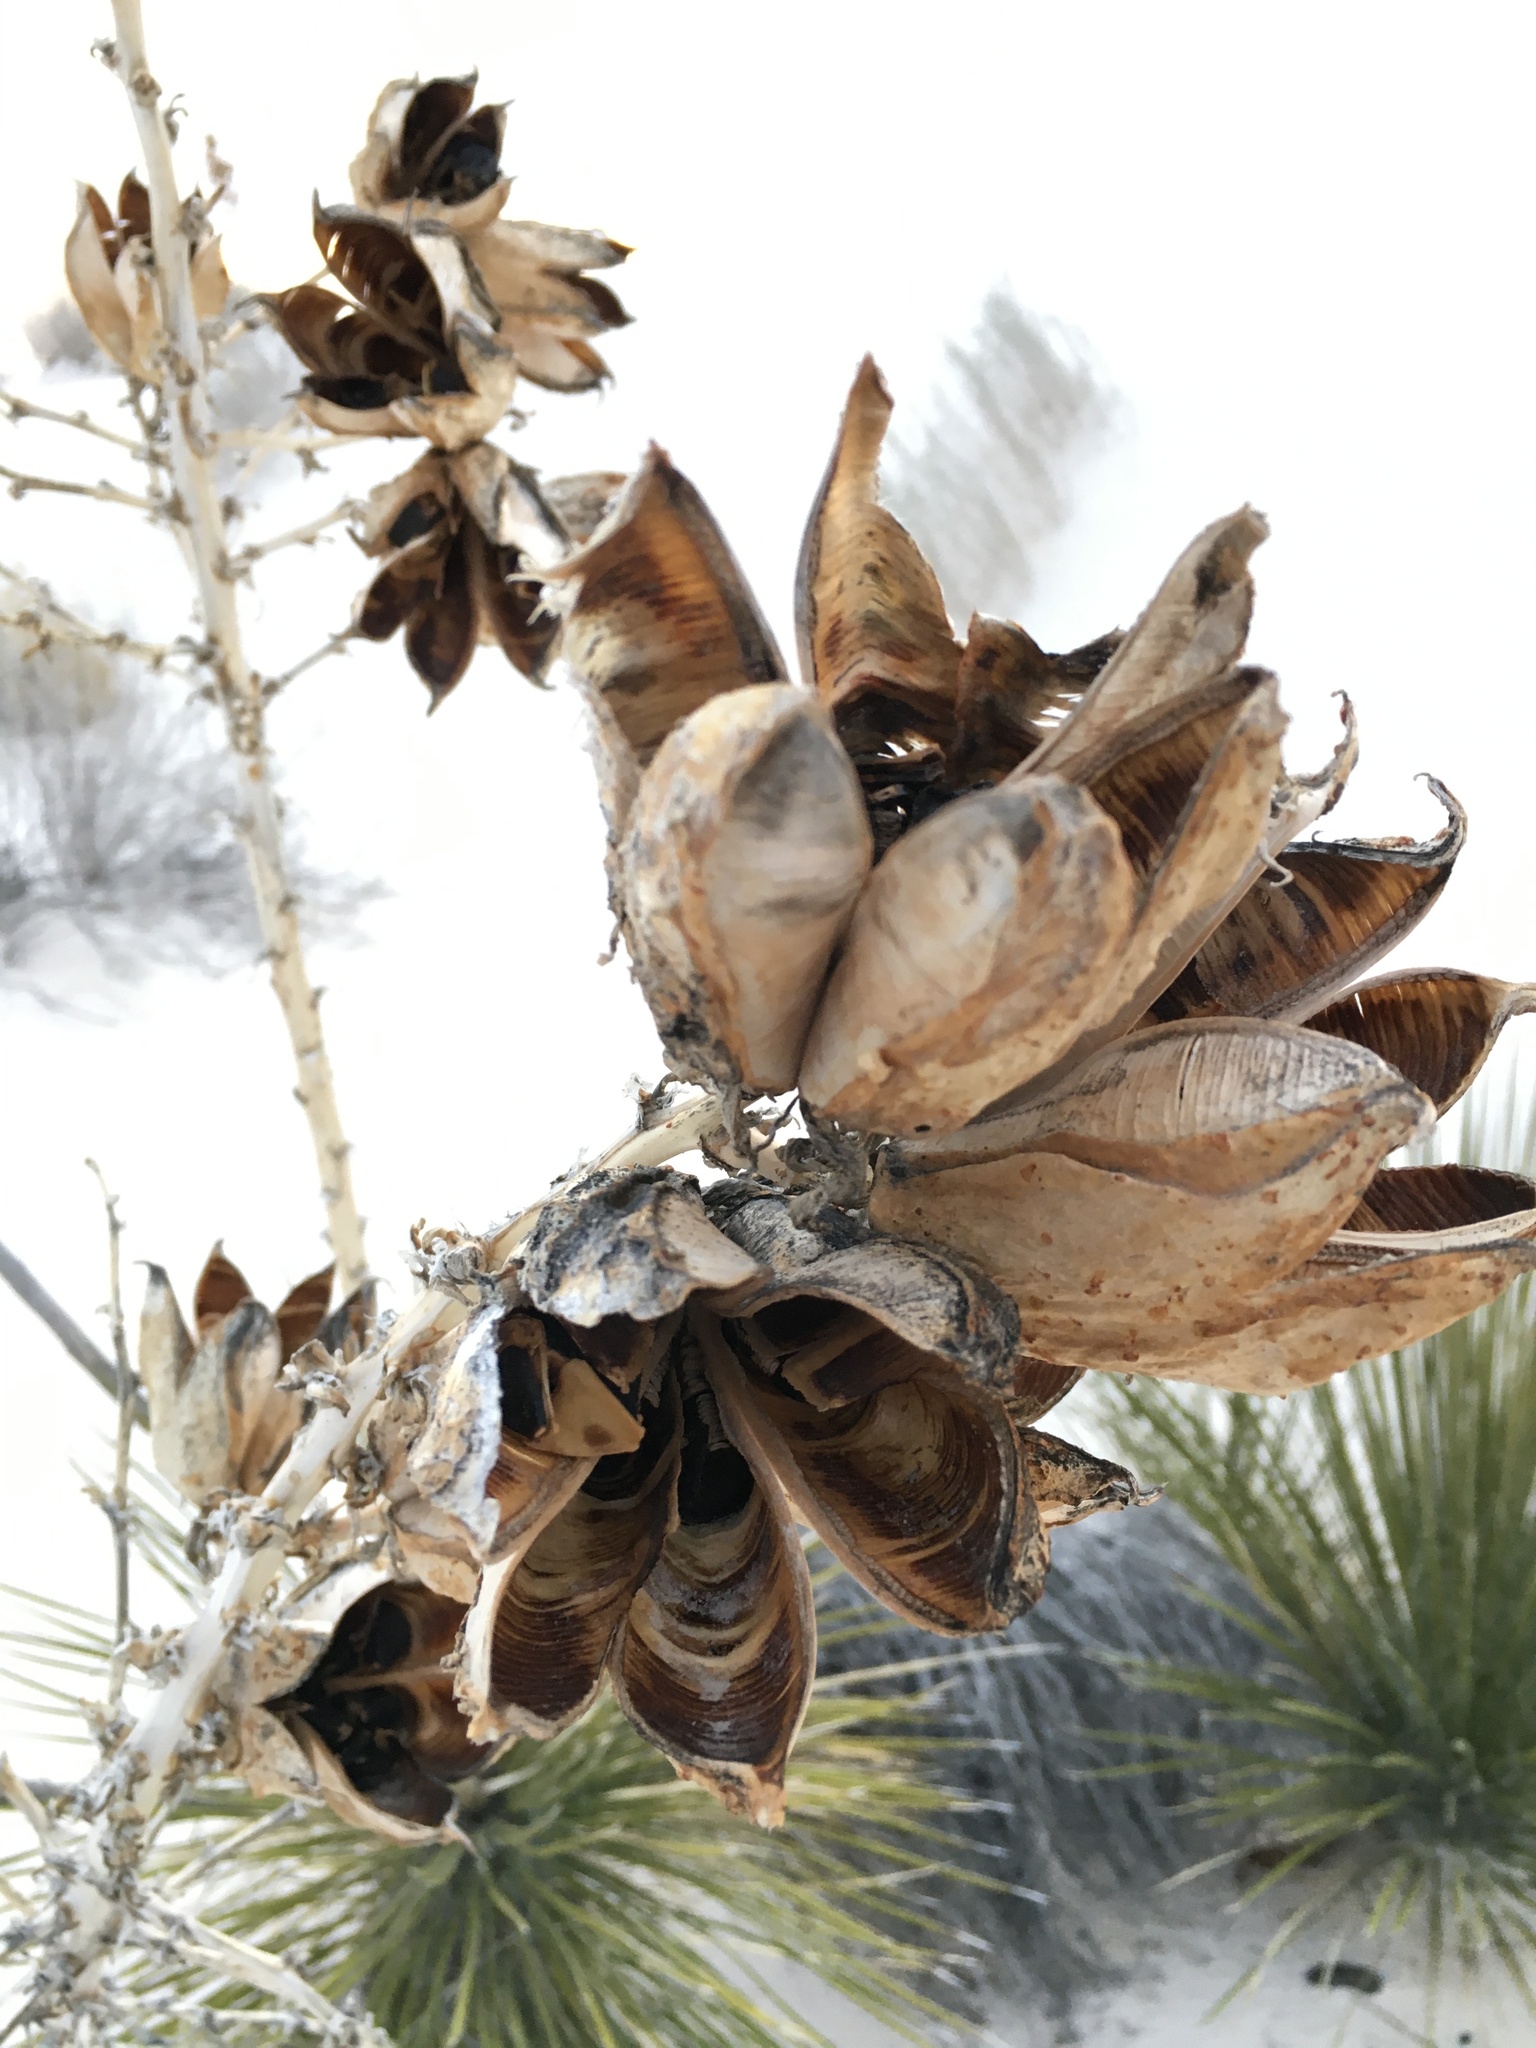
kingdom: Plantae
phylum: Tracheophyta
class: Liliopsida
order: Asparagales
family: Asparagaceae
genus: Yucca
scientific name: Yucca elata
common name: Palmella
